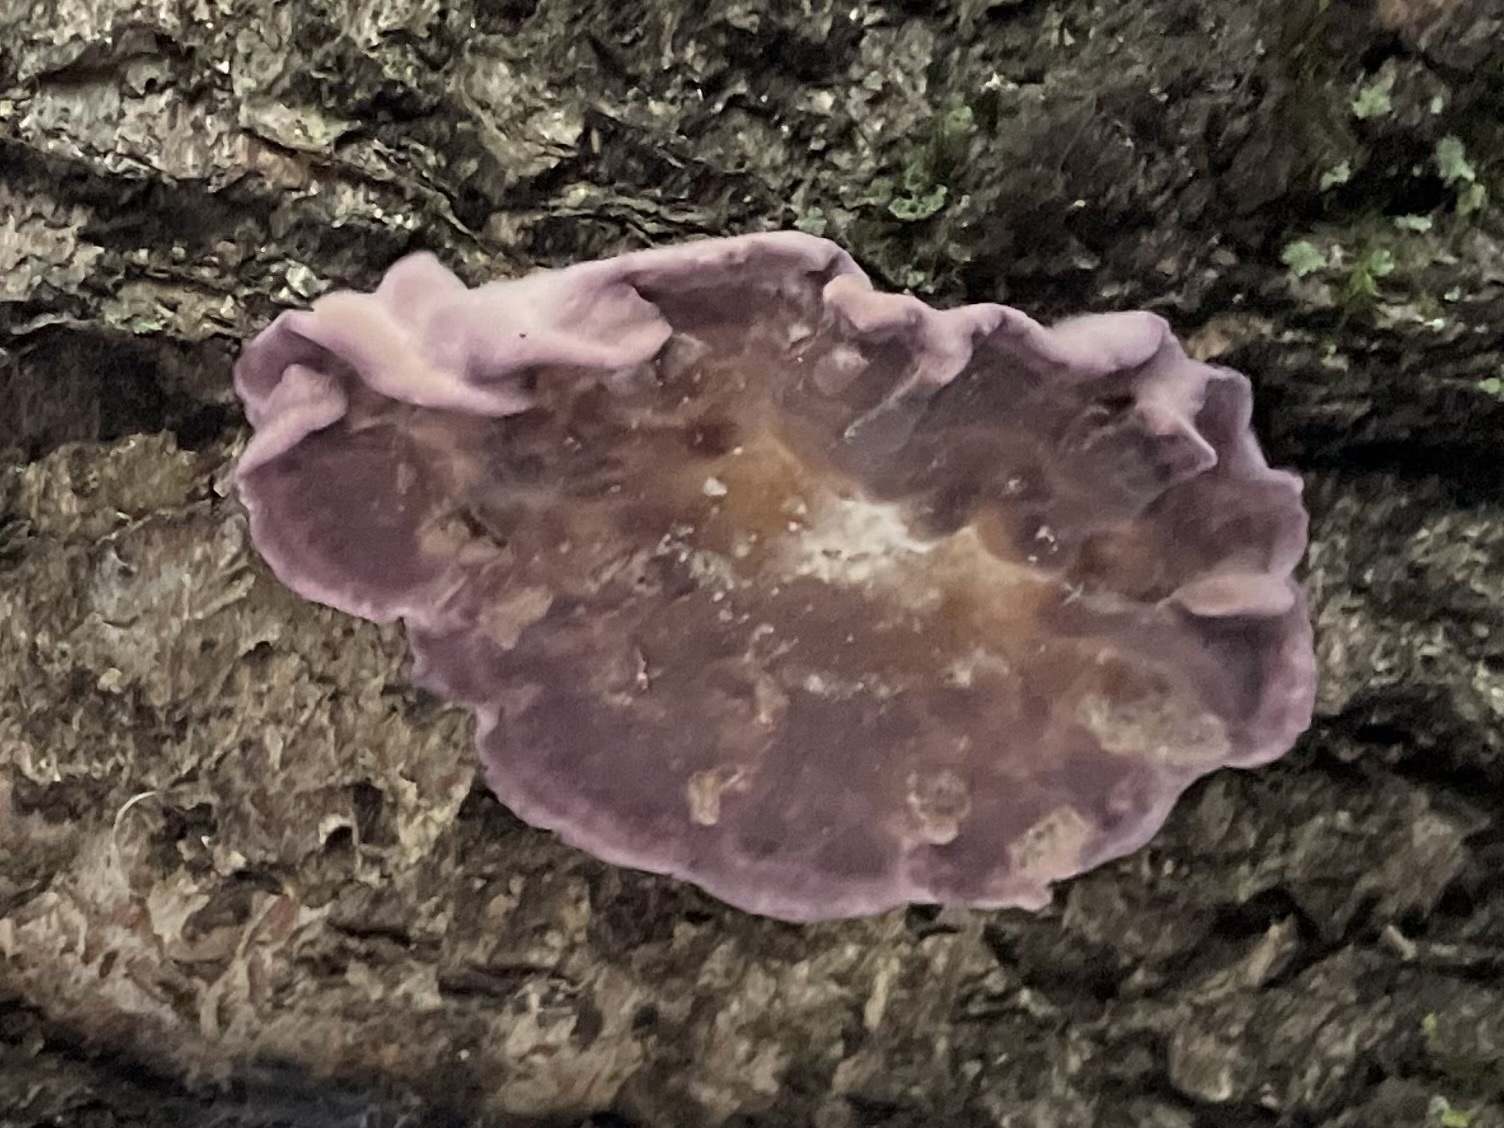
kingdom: Fungi
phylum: Basidiomycota
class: Agaricomycetes
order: Agaricales
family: Cyphellaceae
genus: Chondrostereum
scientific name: Chondrostereum purpureum
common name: Silver leaf disease
